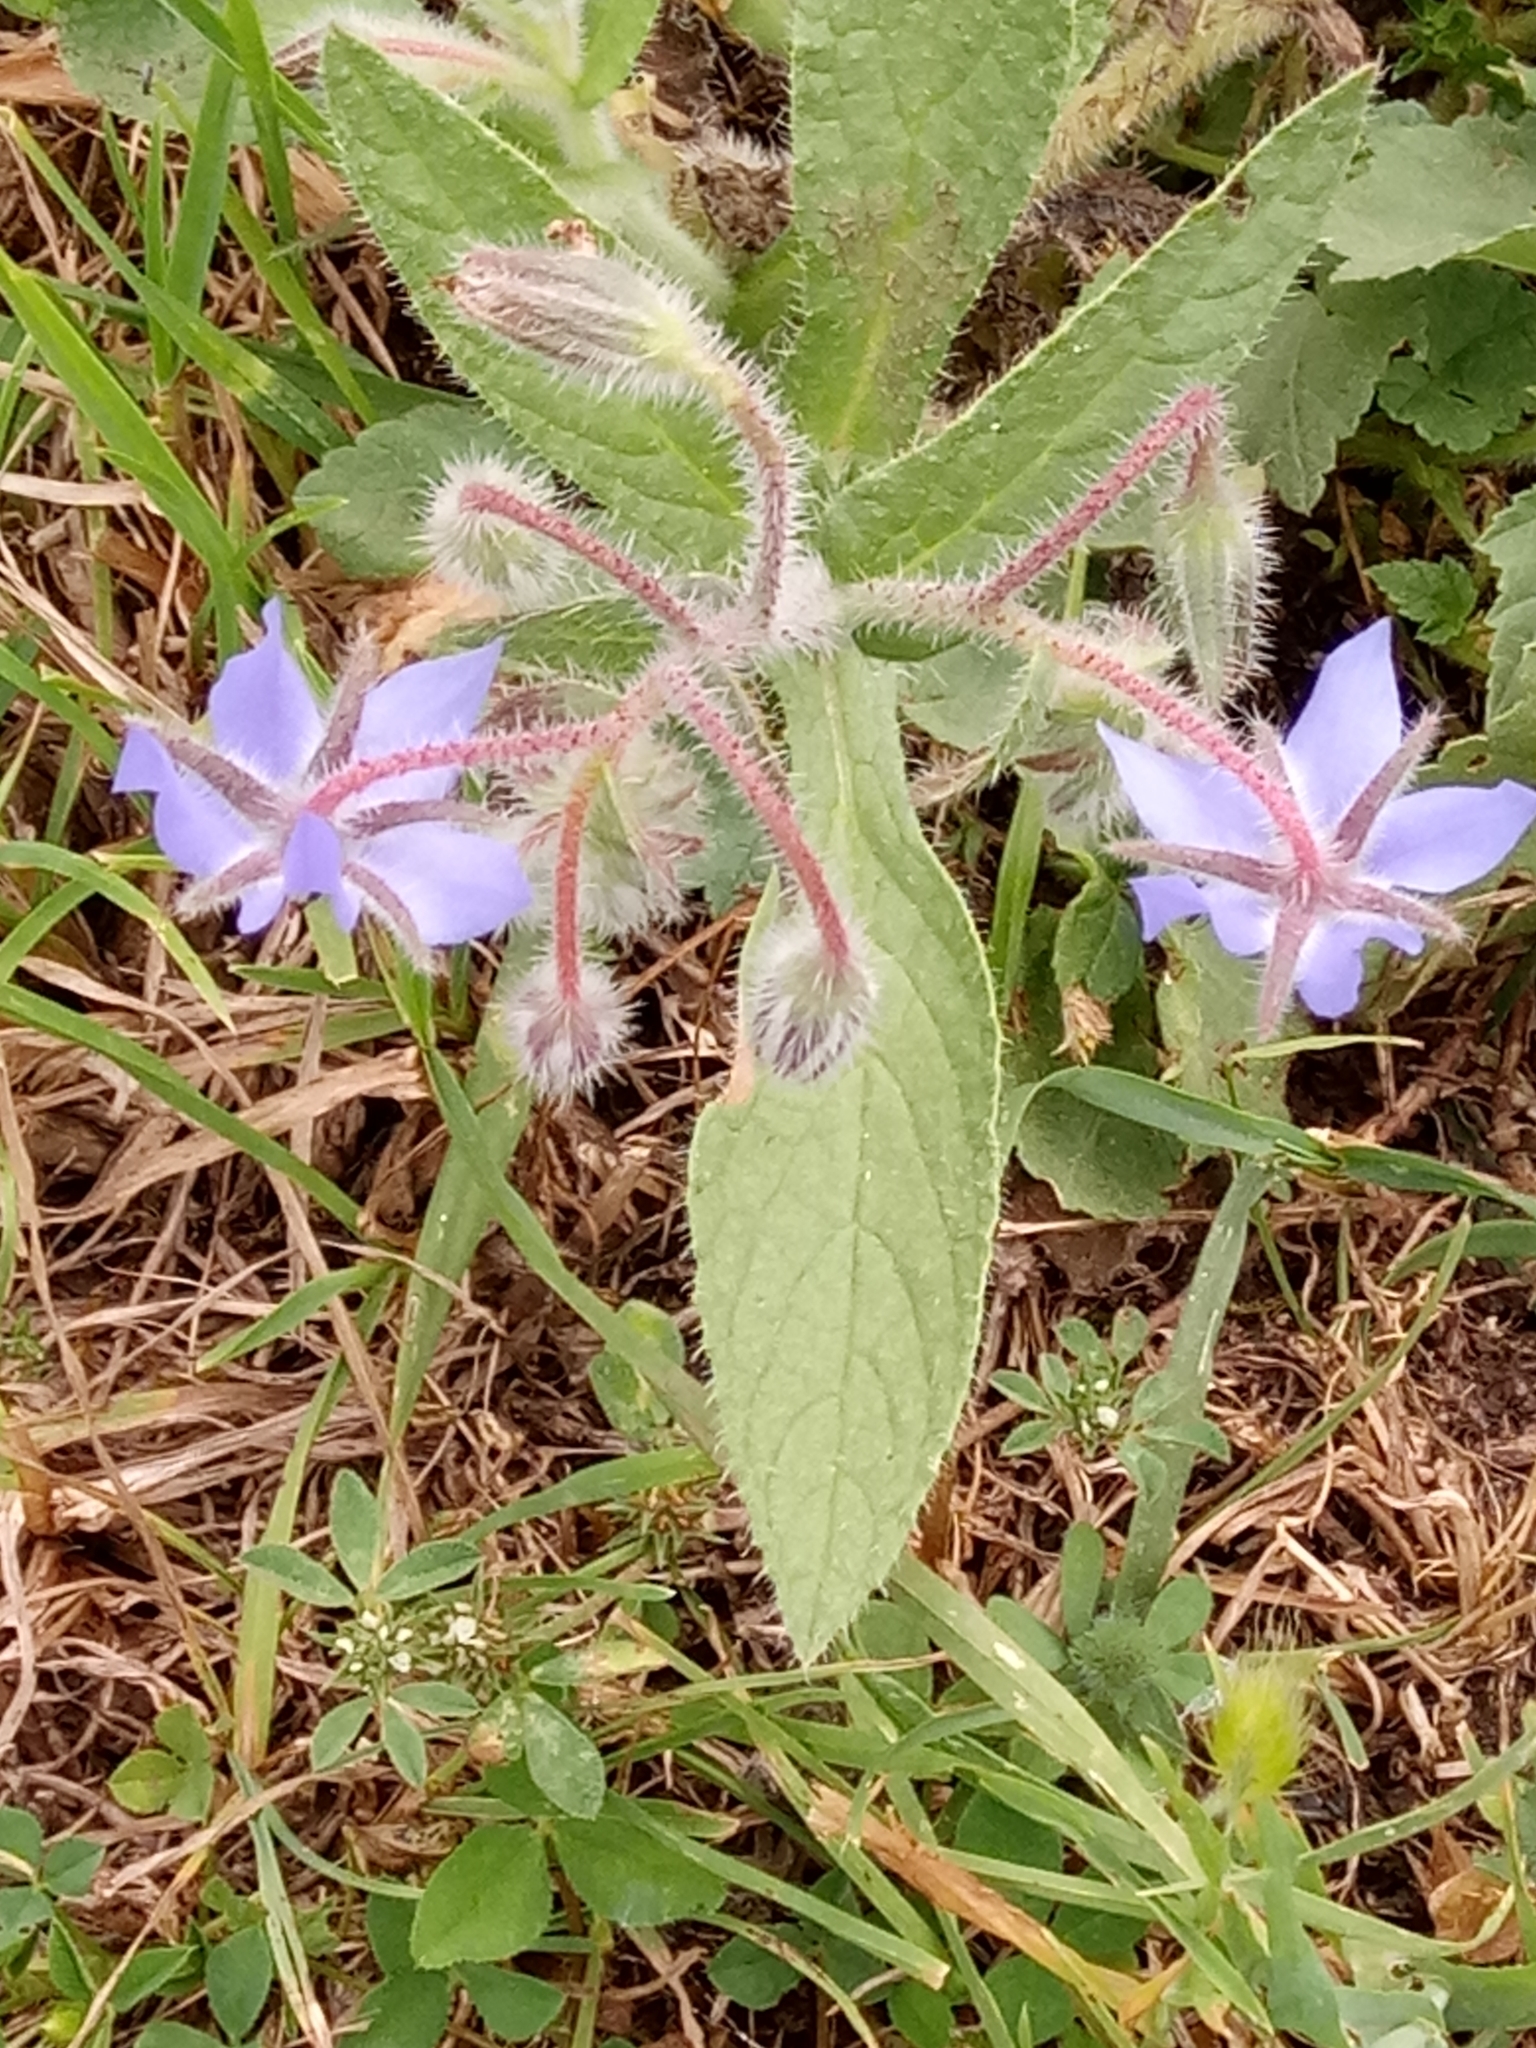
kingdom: Plantae
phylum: Tracheophyta
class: Magnoliopsida
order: Boraginales
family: Boraginaceae
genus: Borago
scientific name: Borago officinalis
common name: Borage
